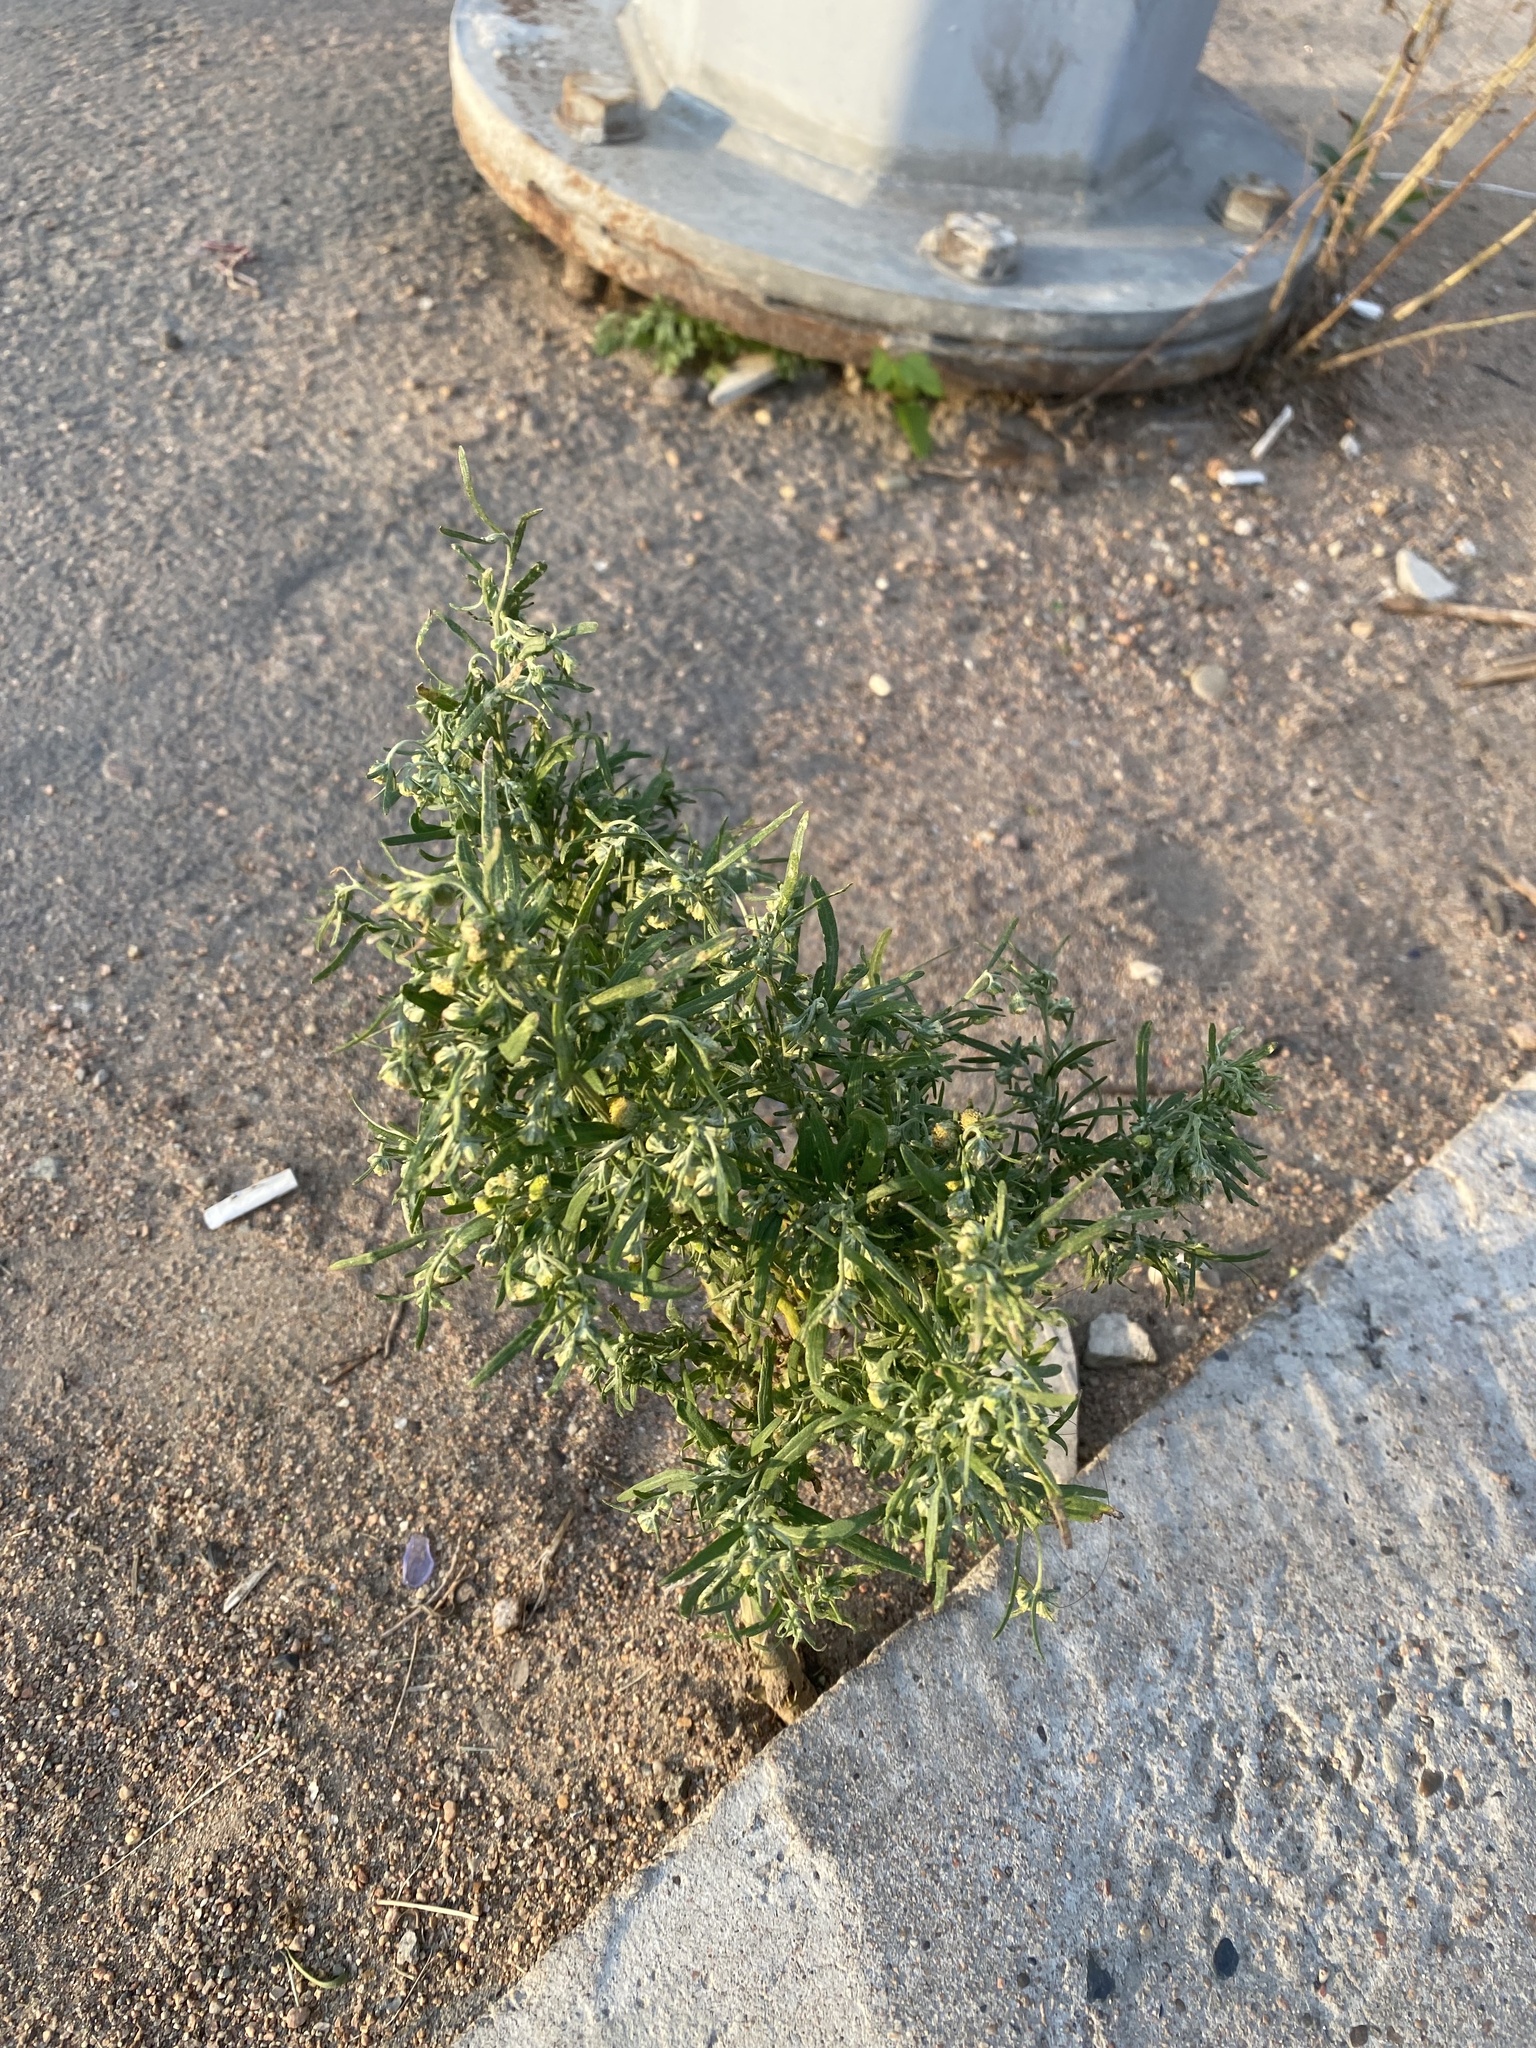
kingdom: Plantae
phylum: Tracheophyta
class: Magnoliopsida
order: Asterales
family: Asteraceae
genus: Artemisia
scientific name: Artemisia sieversiana
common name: Sieversian wormwood
